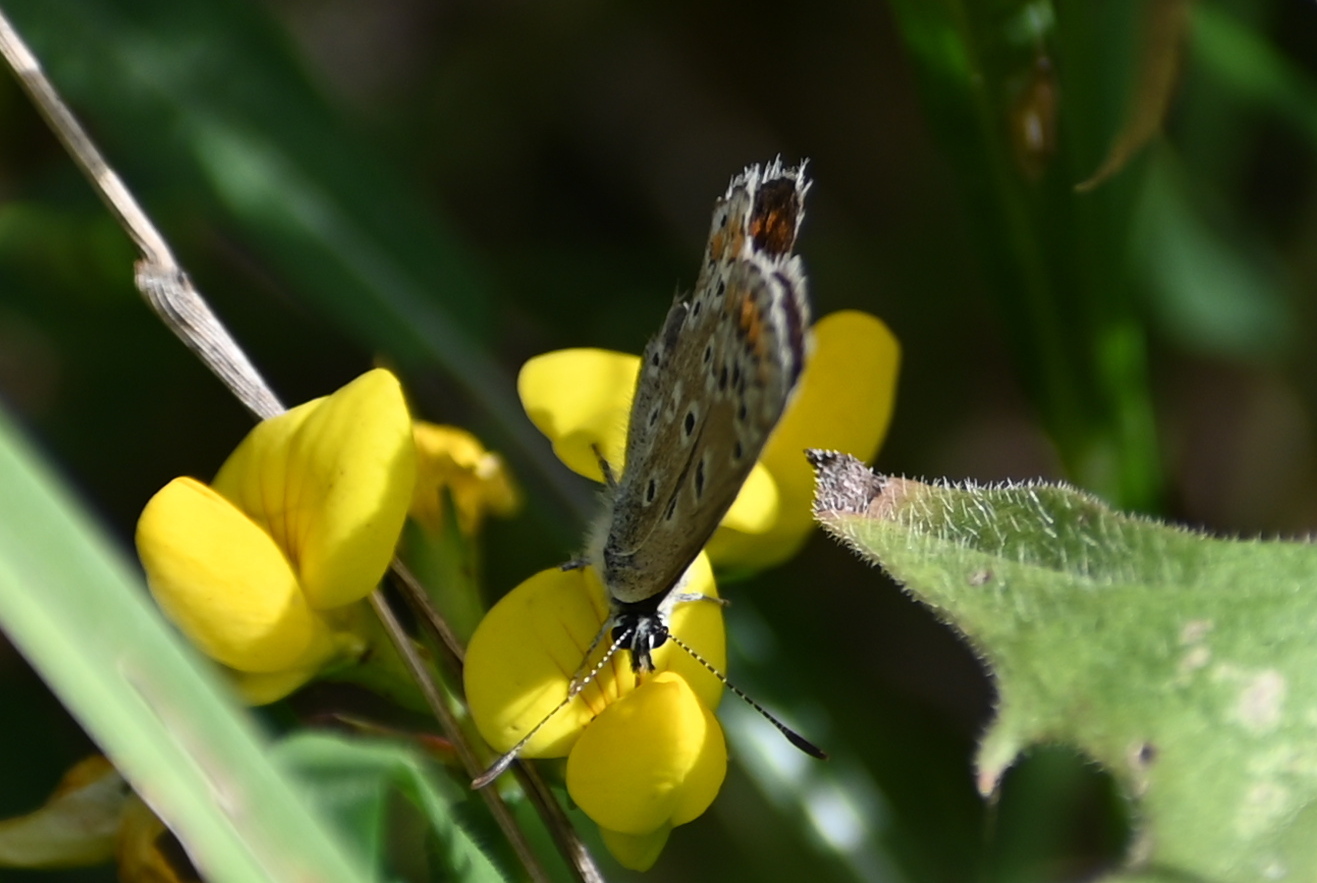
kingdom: Animalia
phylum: Arthropoda
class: Insecta
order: Lepidoptera
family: Lycaenidae
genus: Polyommatus
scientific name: Polyommatus icarus
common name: Common blue
